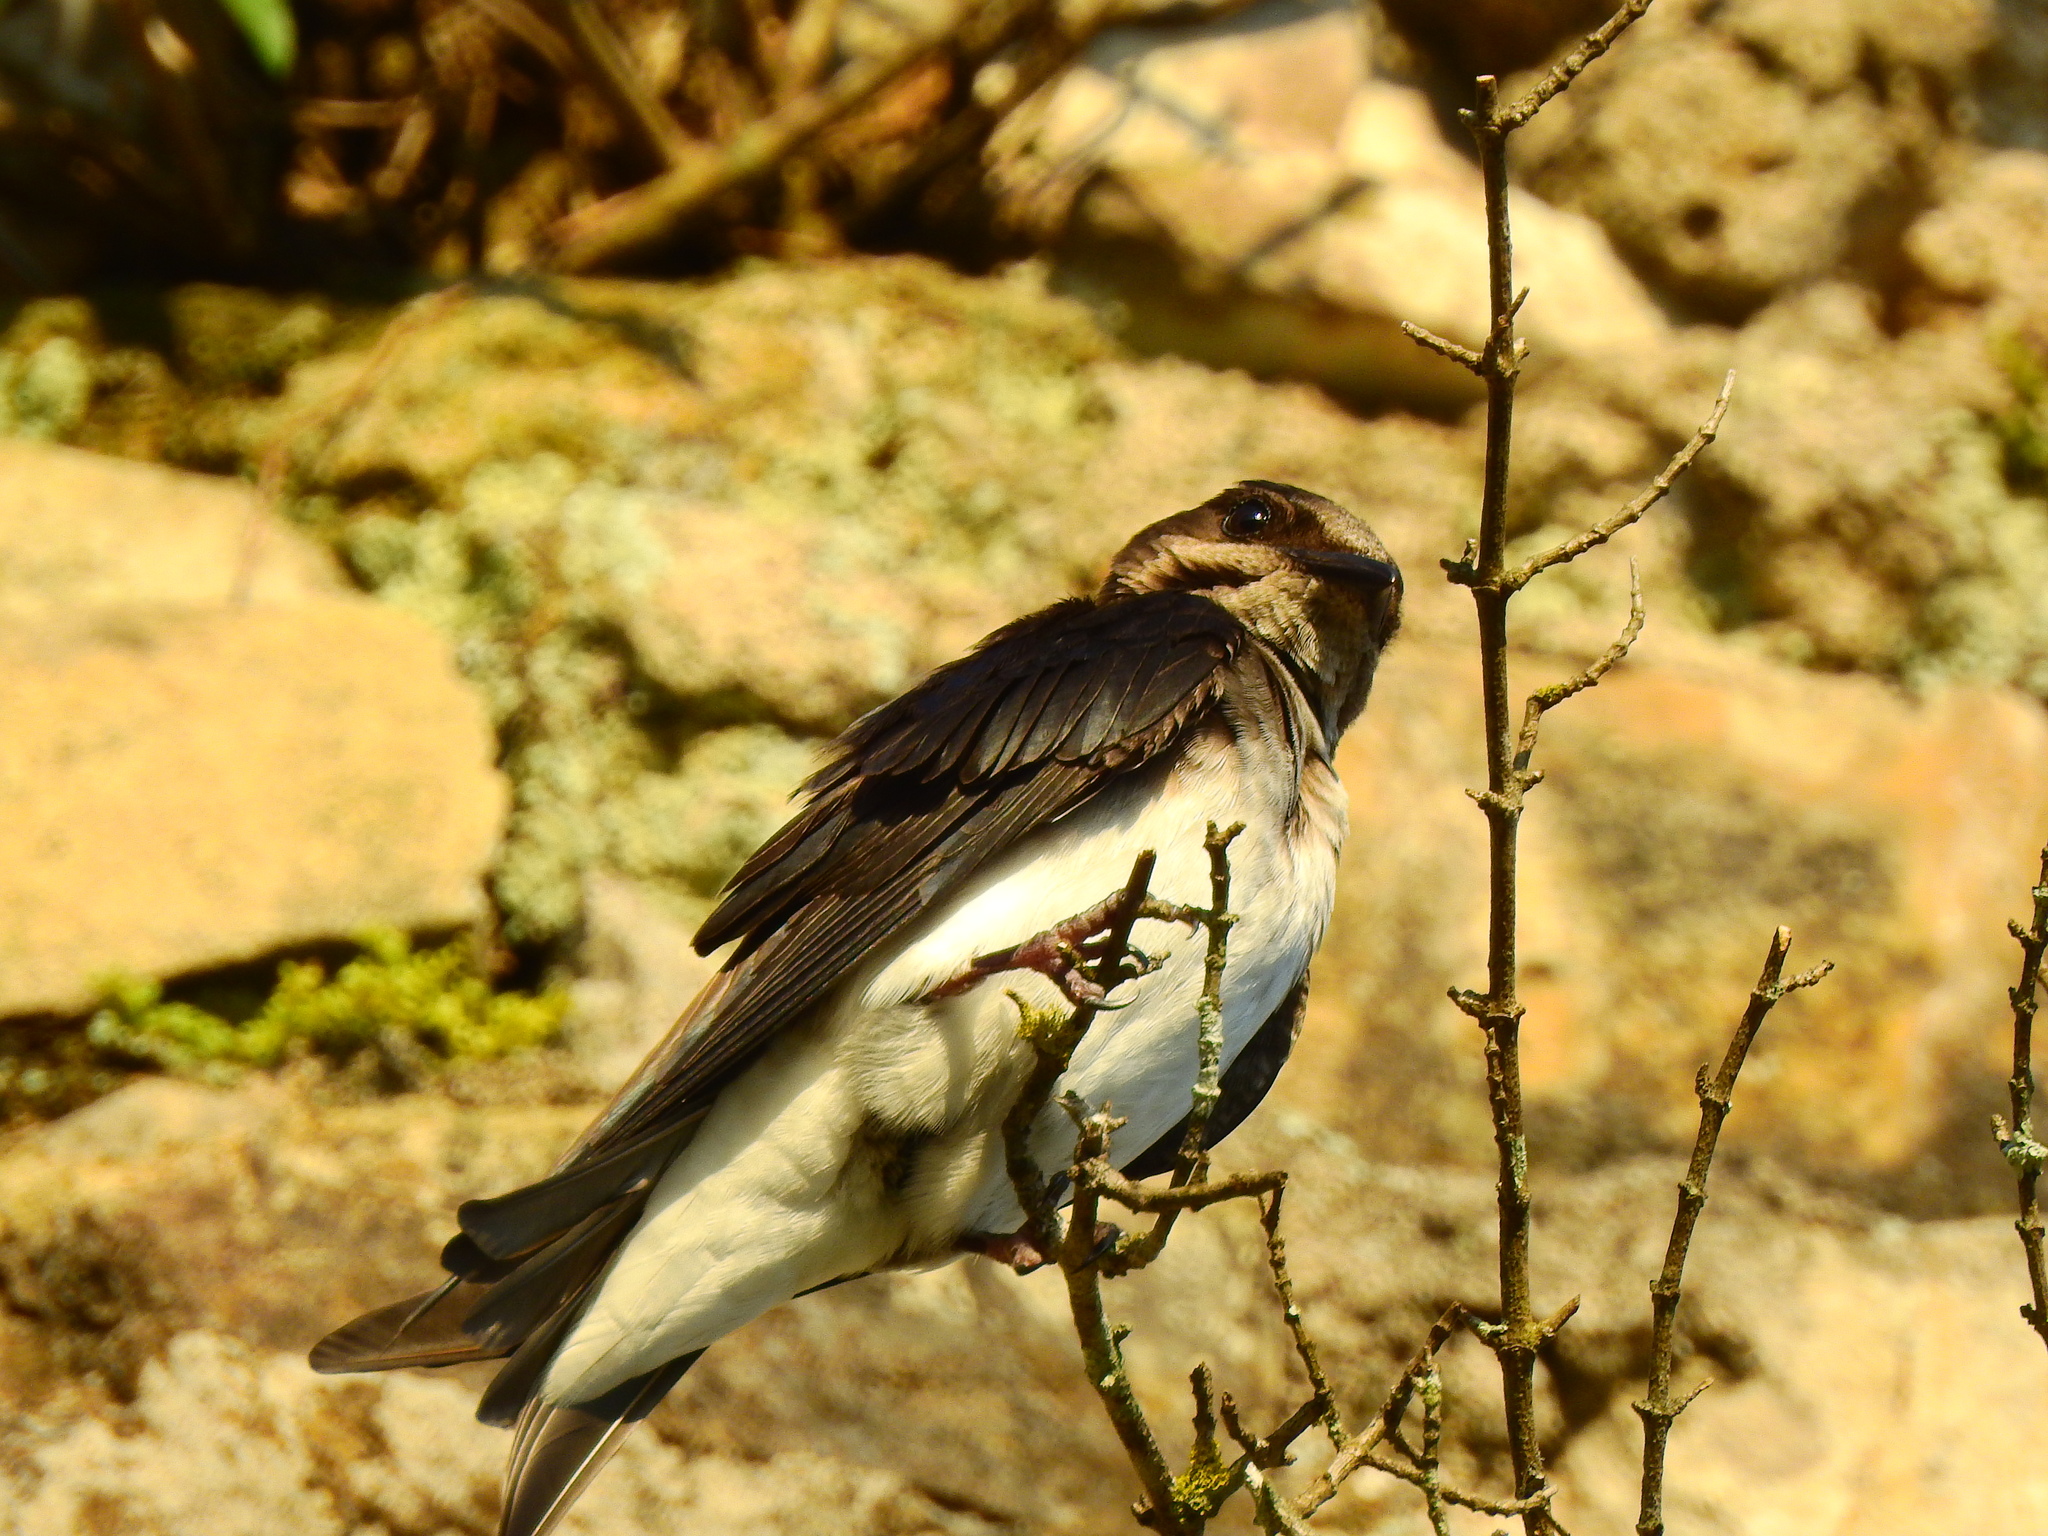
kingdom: Animalia
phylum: Chordata
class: Aves
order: Passeriformes
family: Hirundinidae
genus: Stelgidopteryx
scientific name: Stelgidopteryx serripennis
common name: Northern rough-winged swallow
